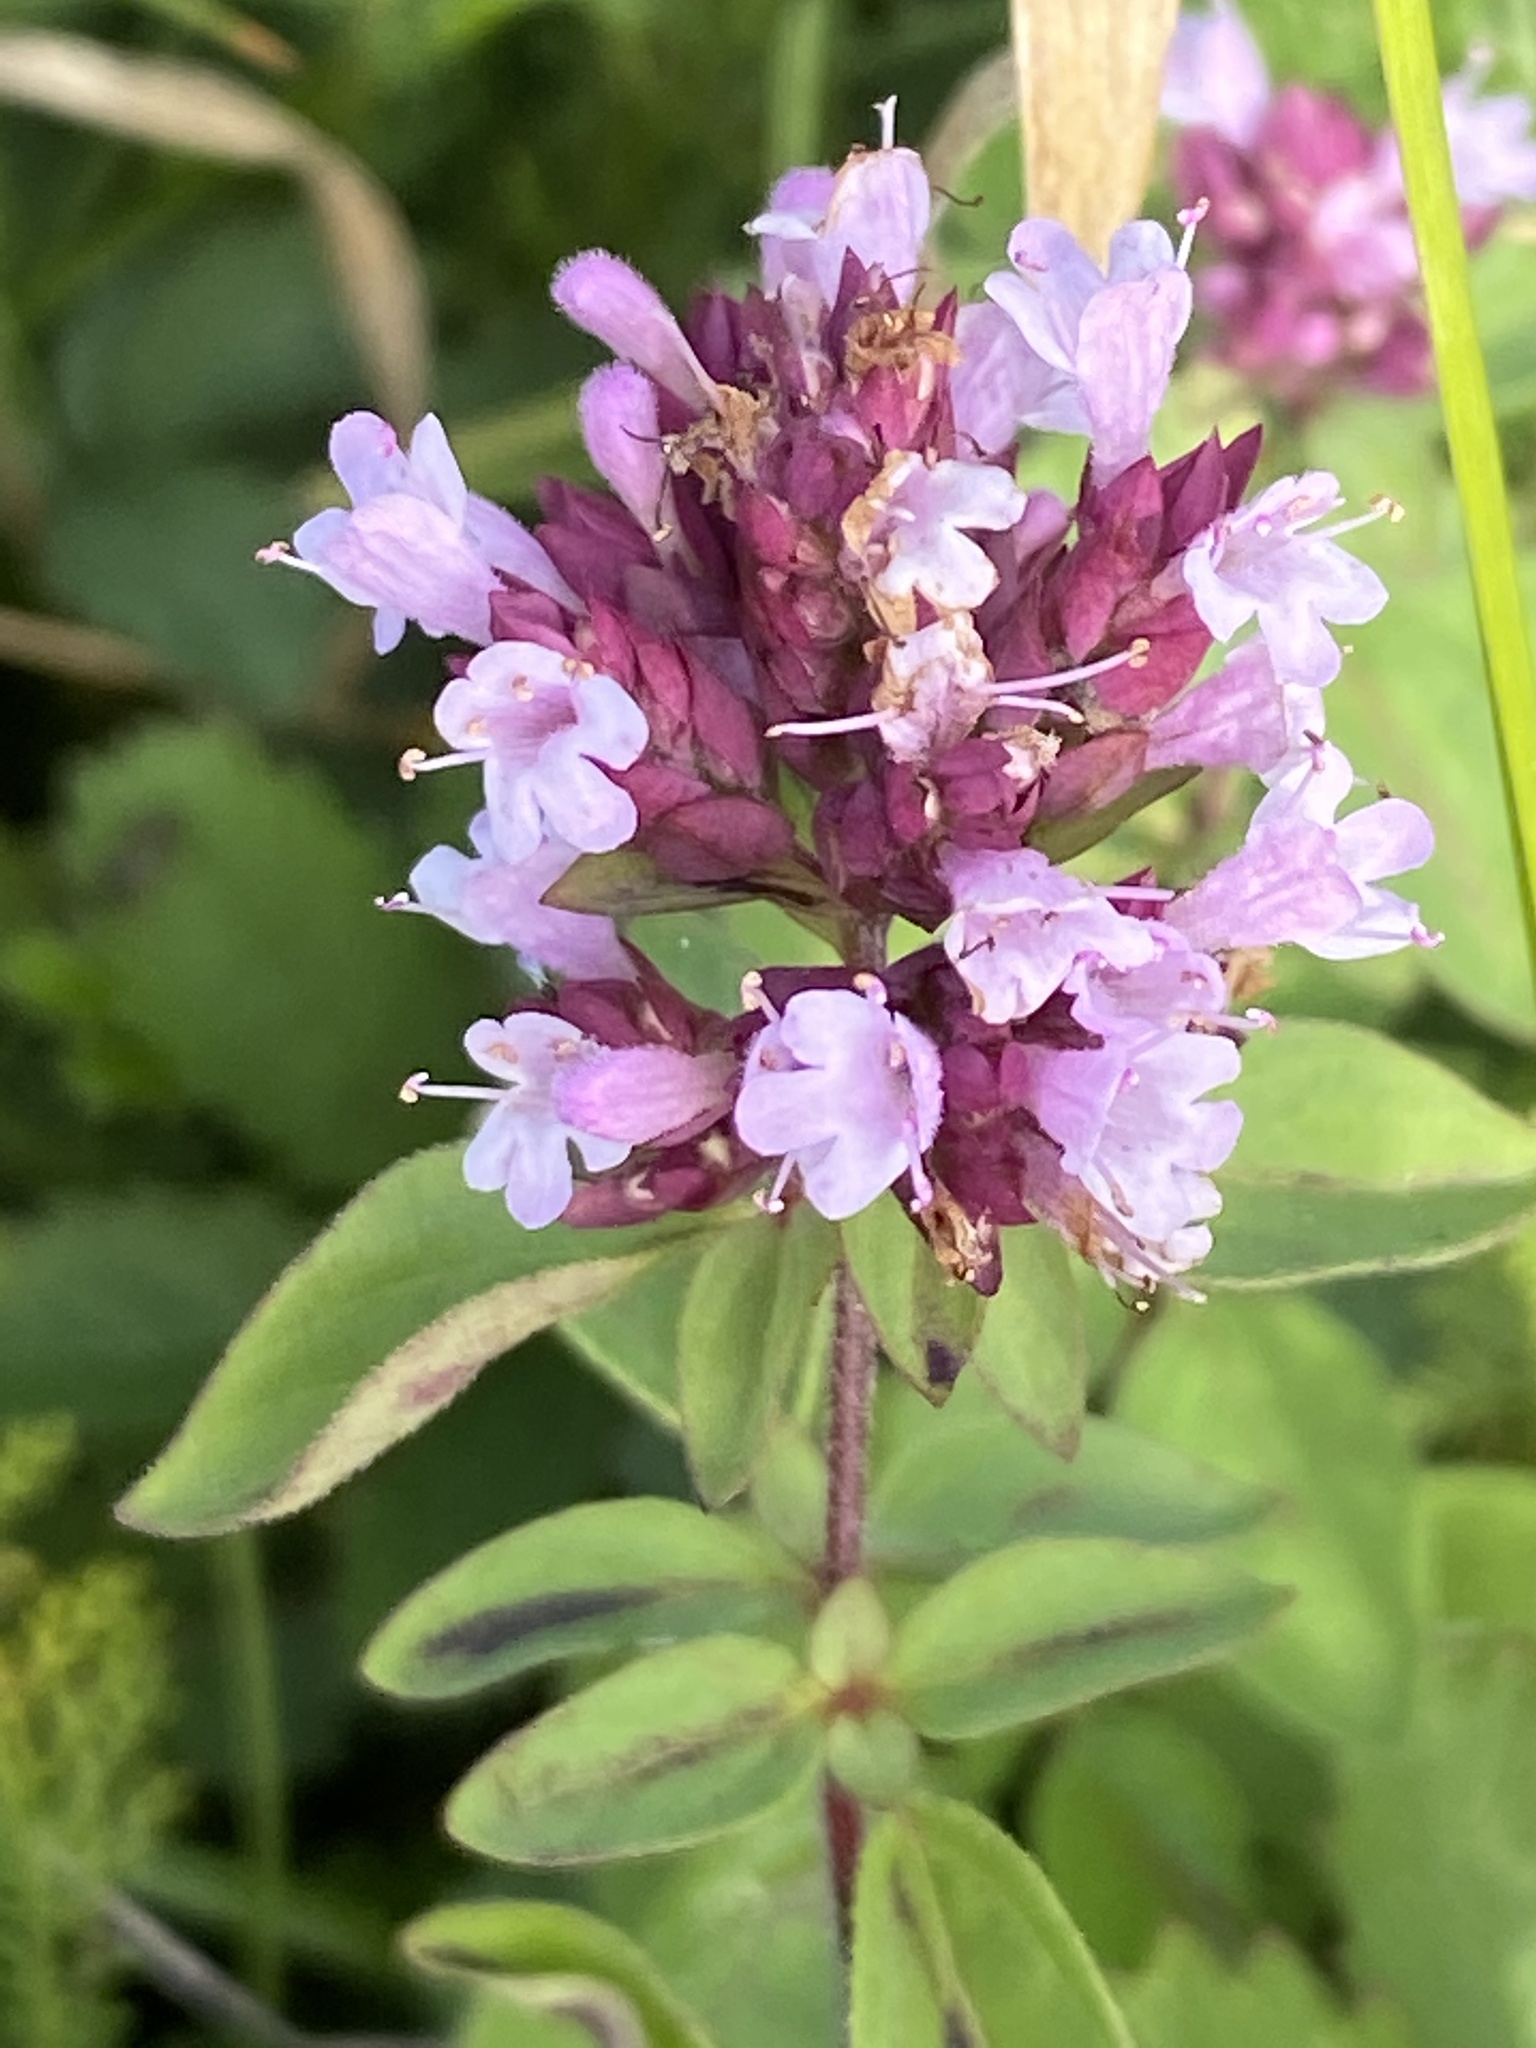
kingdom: Plantae
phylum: Tracheophyta
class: Magnoliopsida
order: Lamiales
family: Lamiaceae
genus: Origanum
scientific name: Origanum vulgare
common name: Wild marjoram
